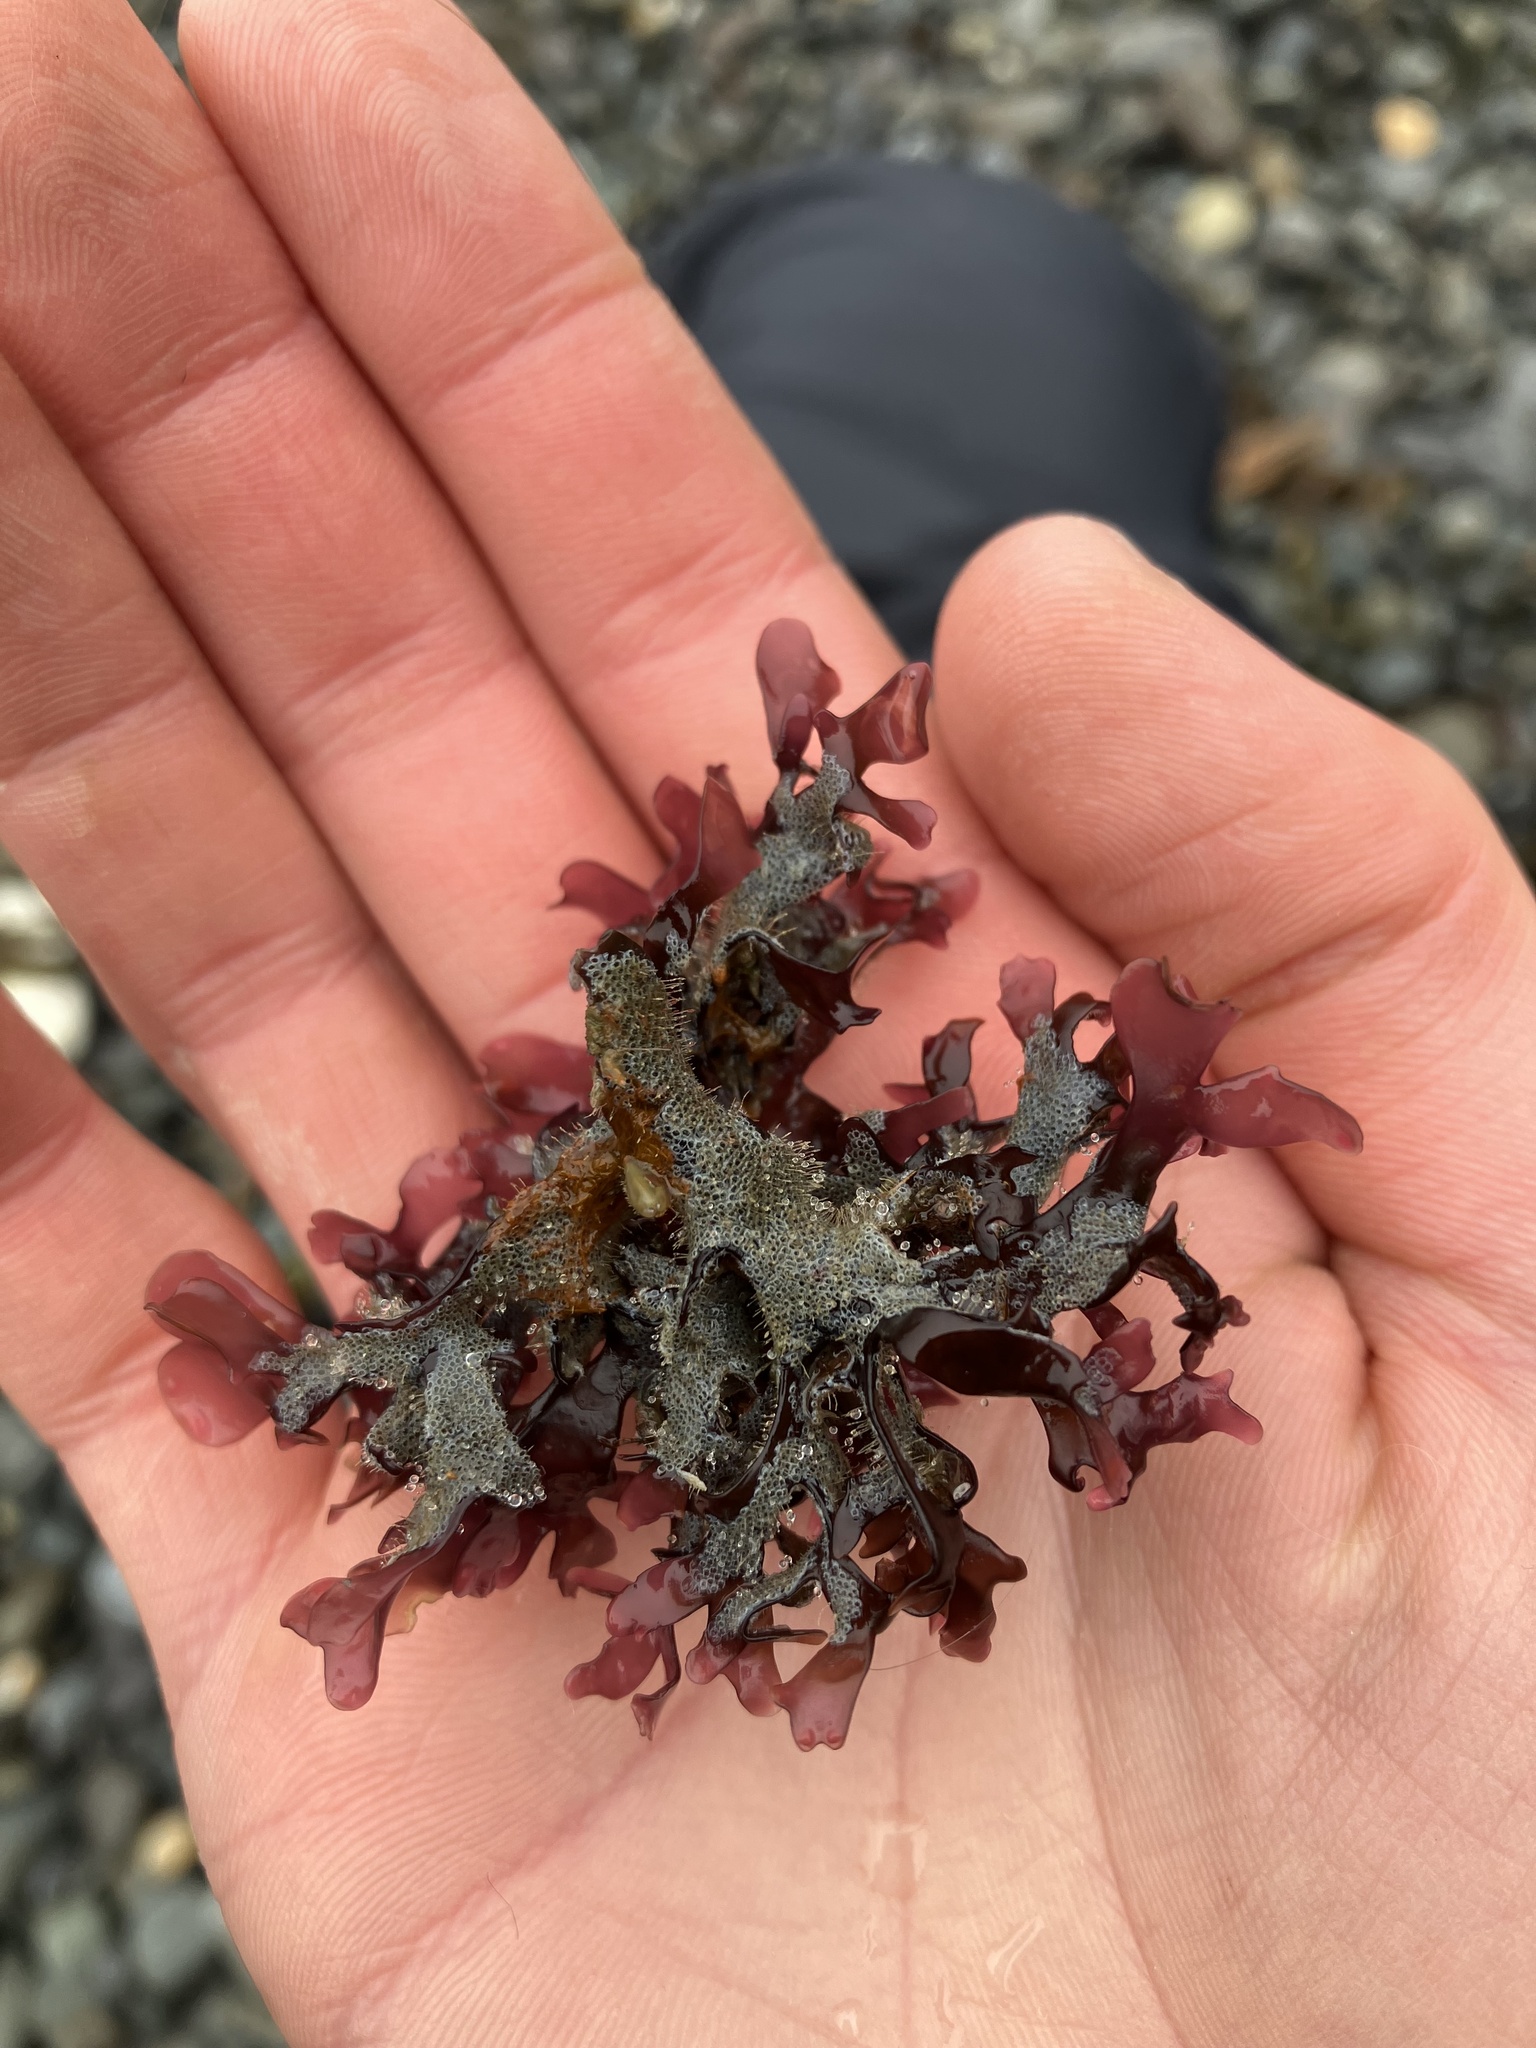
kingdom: Plantae
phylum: Rhodophyta
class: Florideophyceae
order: Gigartinales
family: Phyllophoraceae
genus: Mastocarpus
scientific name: Mastocarpus stellatus
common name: False irish moss
